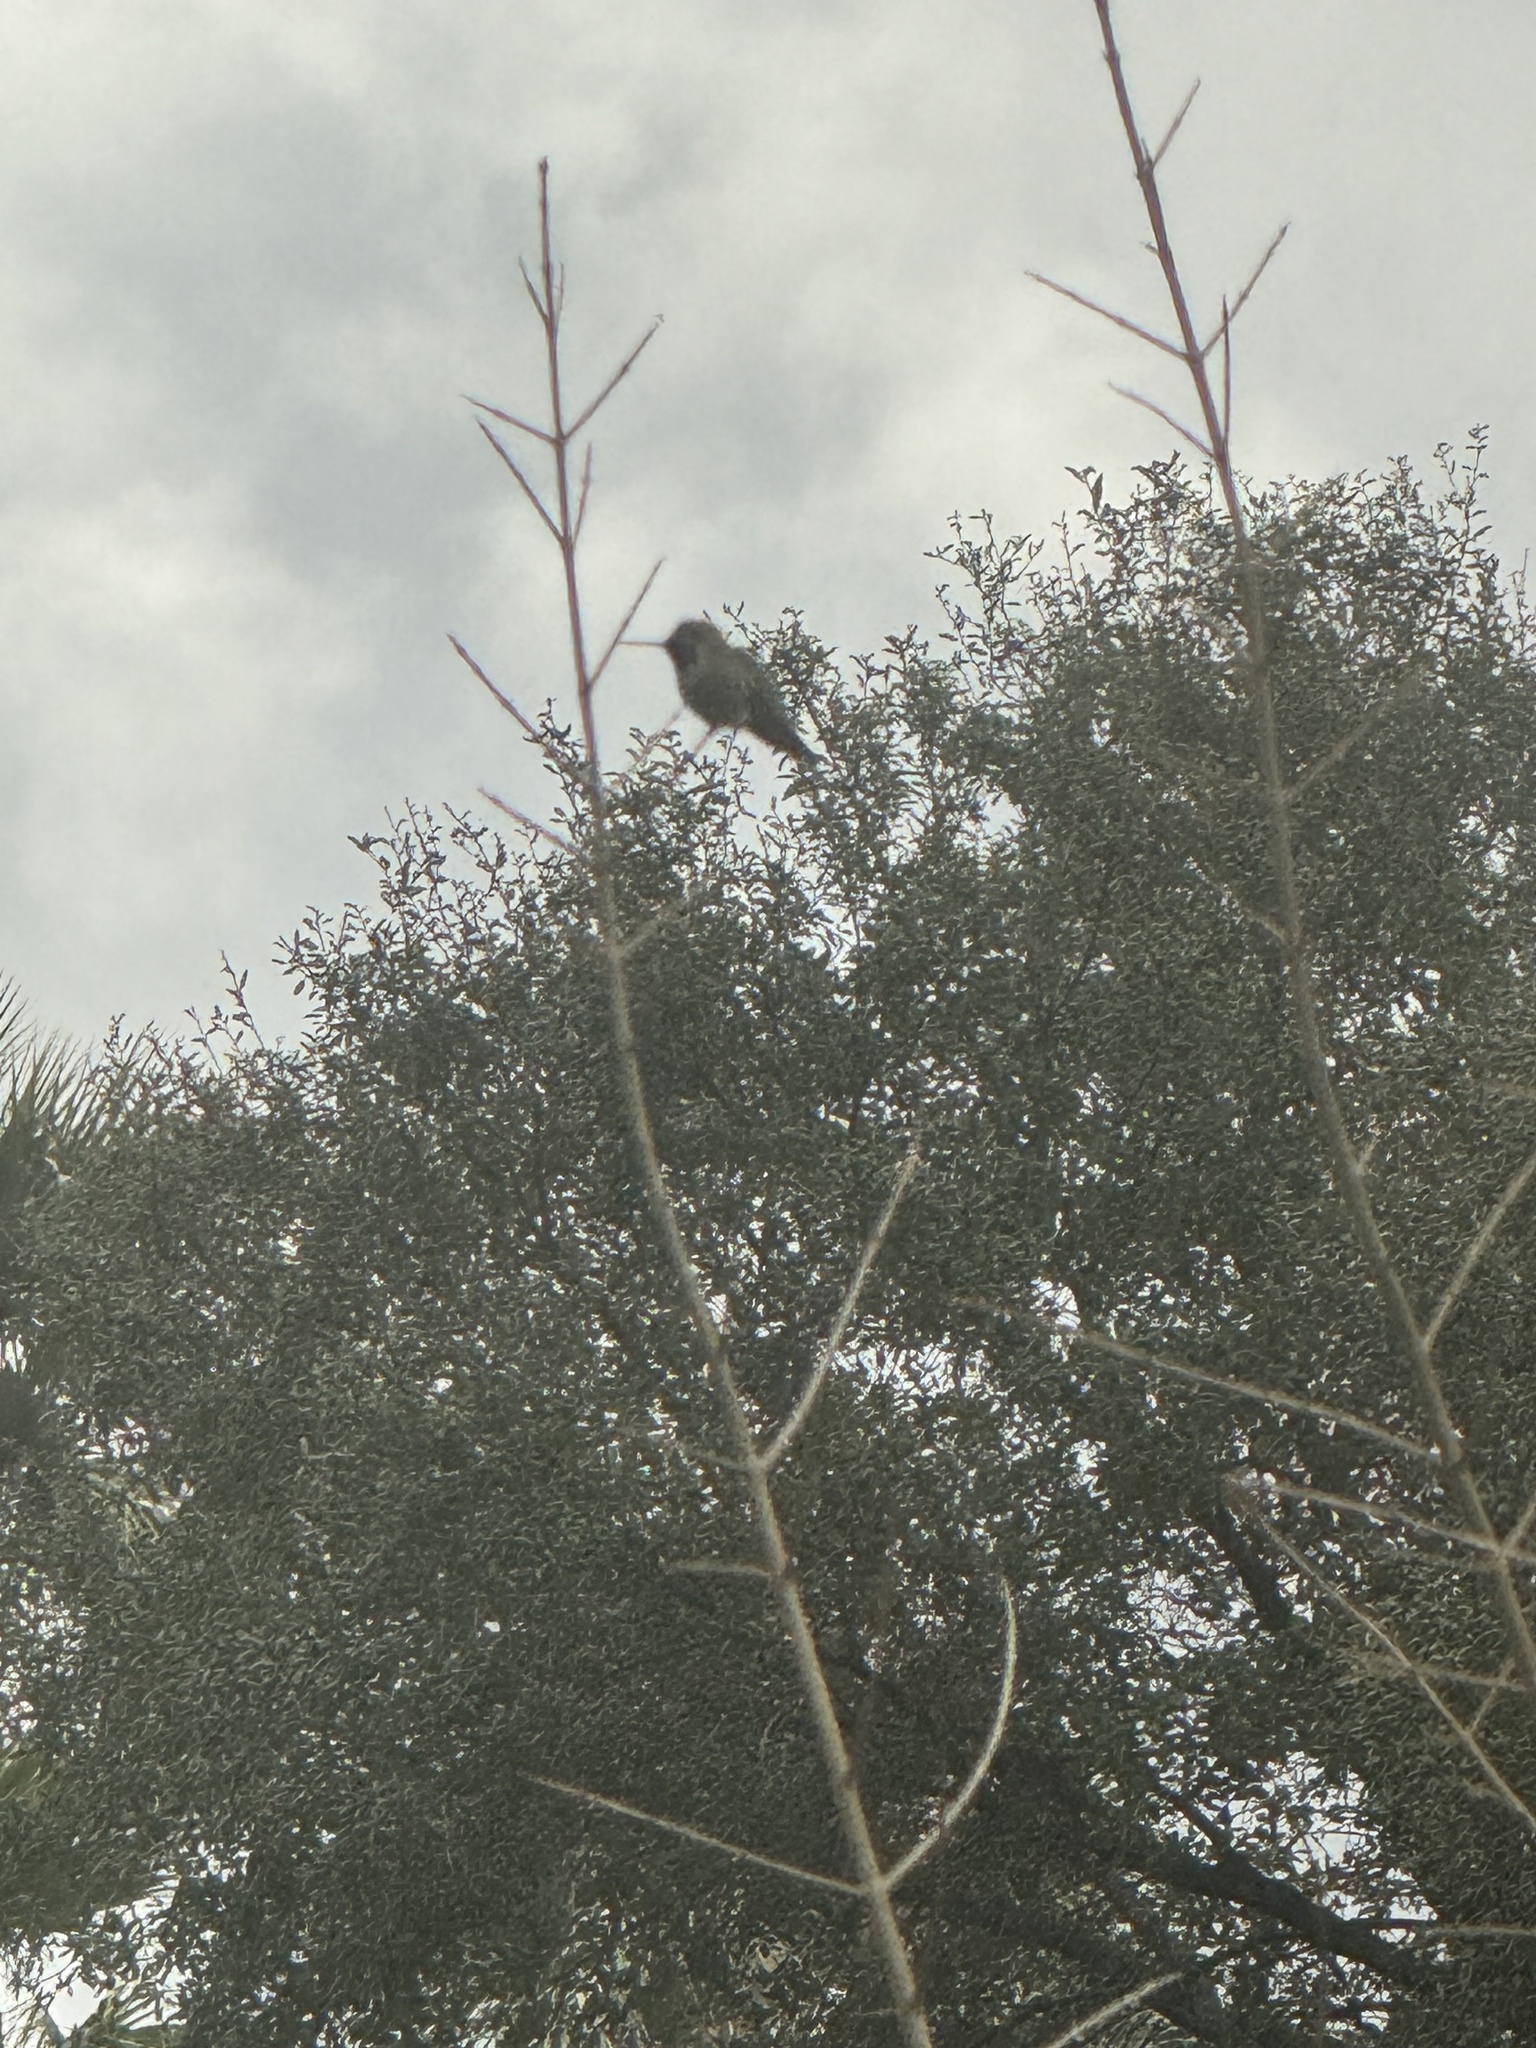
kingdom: Animalia
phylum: Chordata
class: Aves
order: Apodiformes
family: Trochilidae
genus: Calypte
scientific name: Calypte anna
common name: Anna's hummingbird
